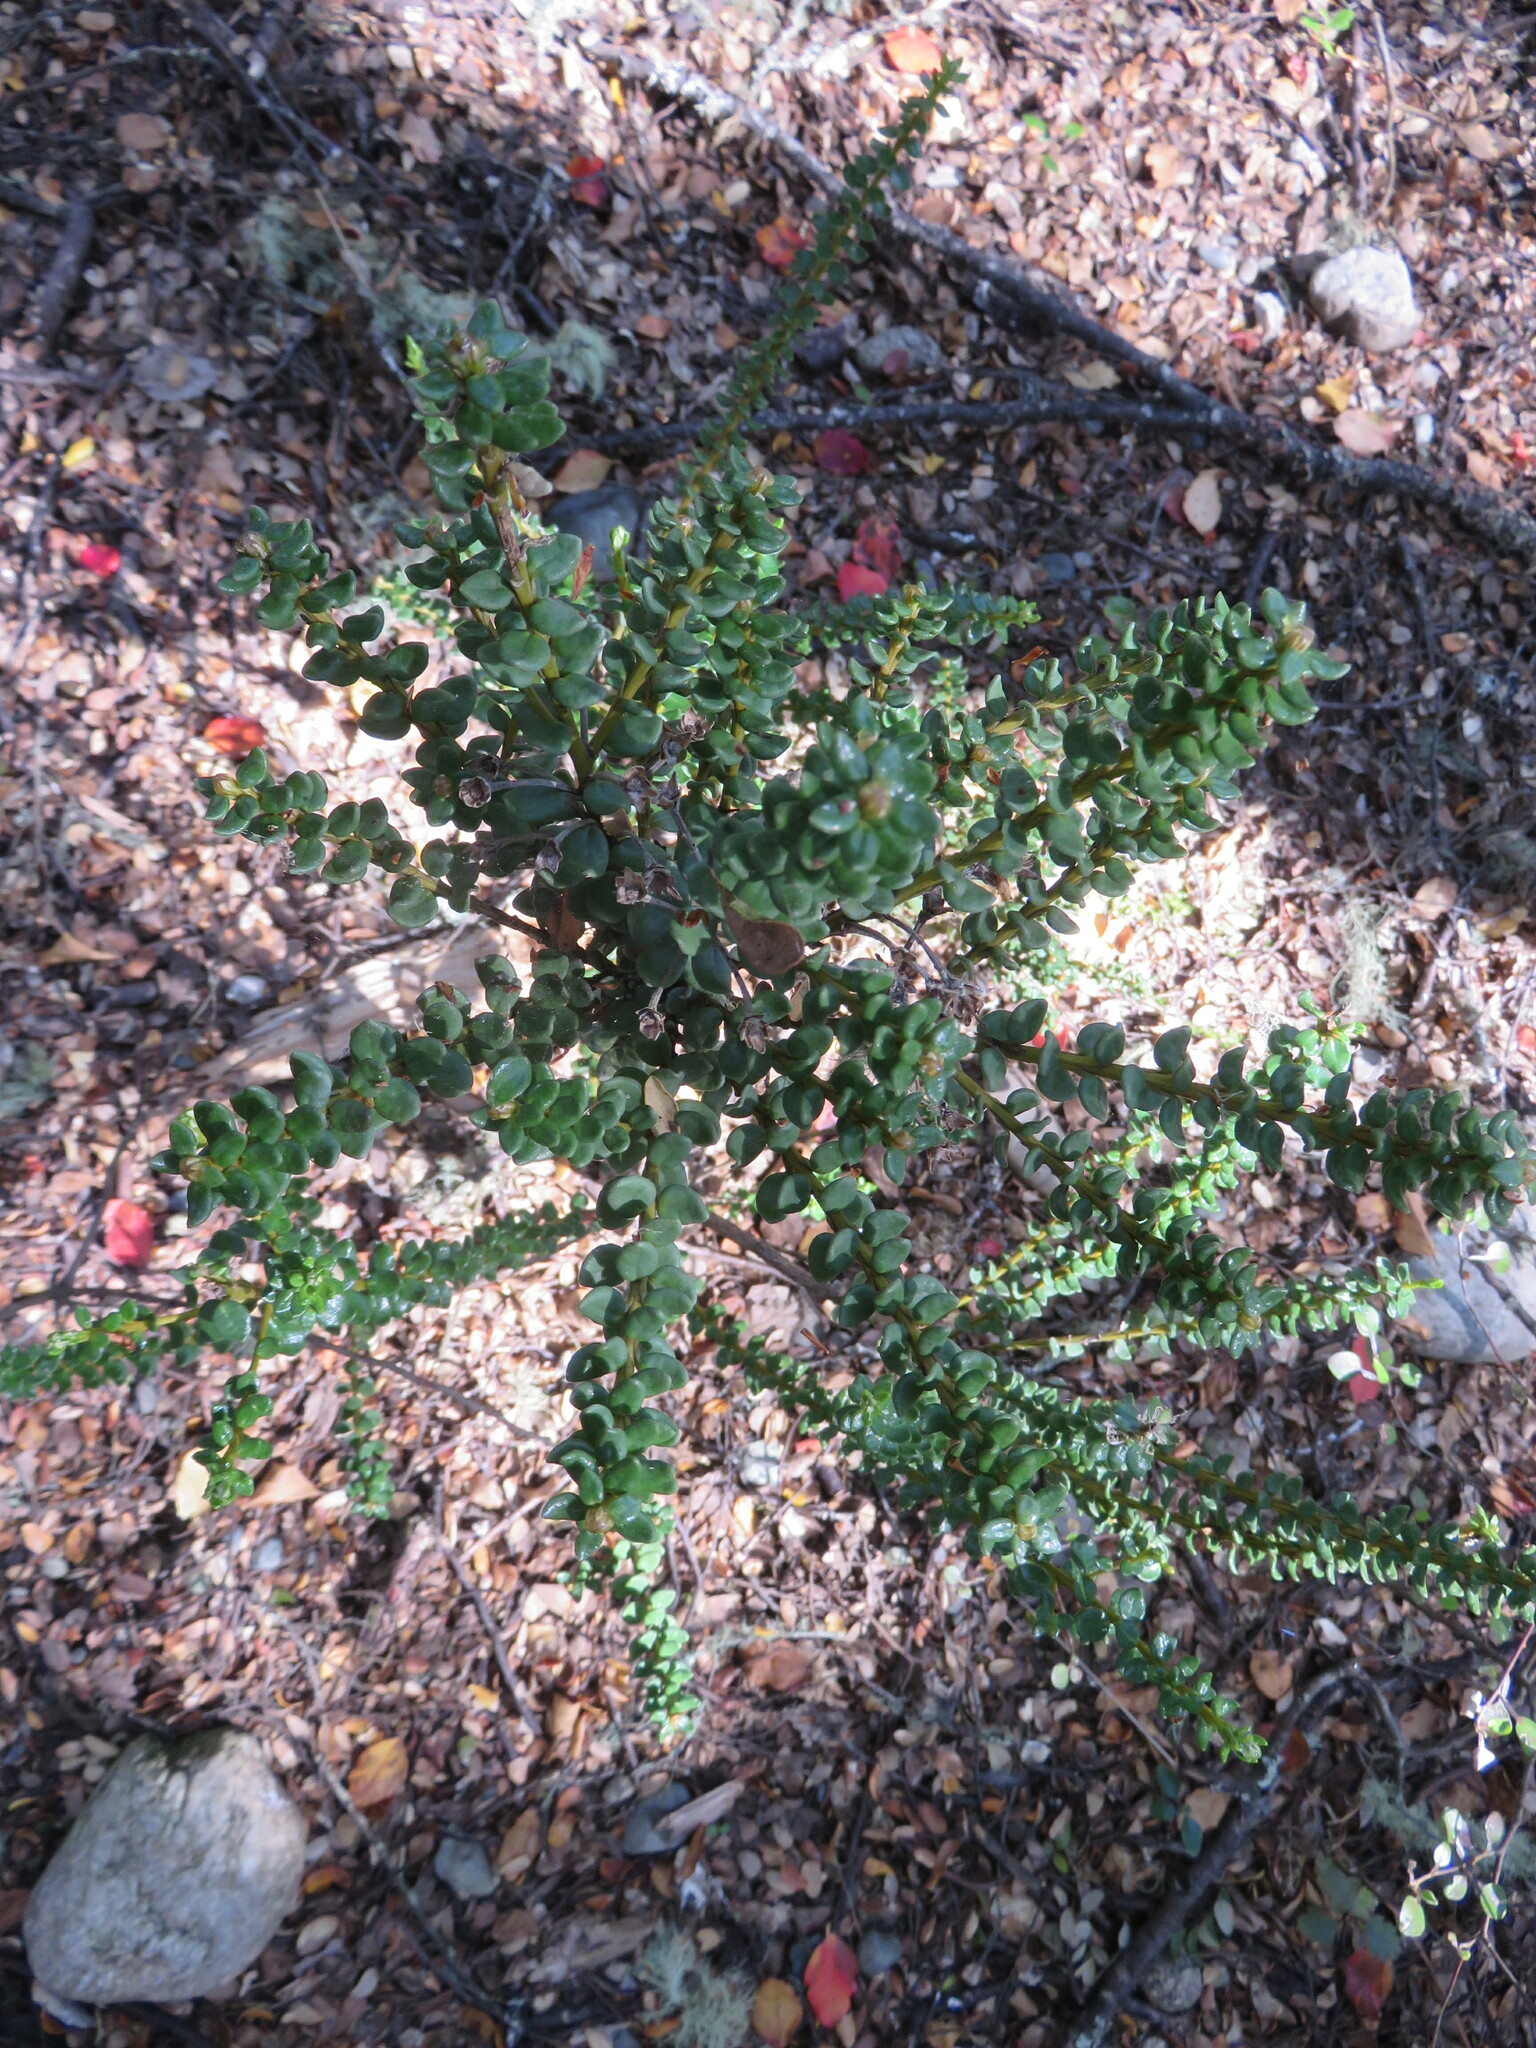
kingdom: Plantae
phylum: Tracheophyta
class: Magnoliopsida
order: Asterales
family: Asteraceae
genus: Olearia
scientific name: Olearia nummularifolia
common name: Sticky daisybush
